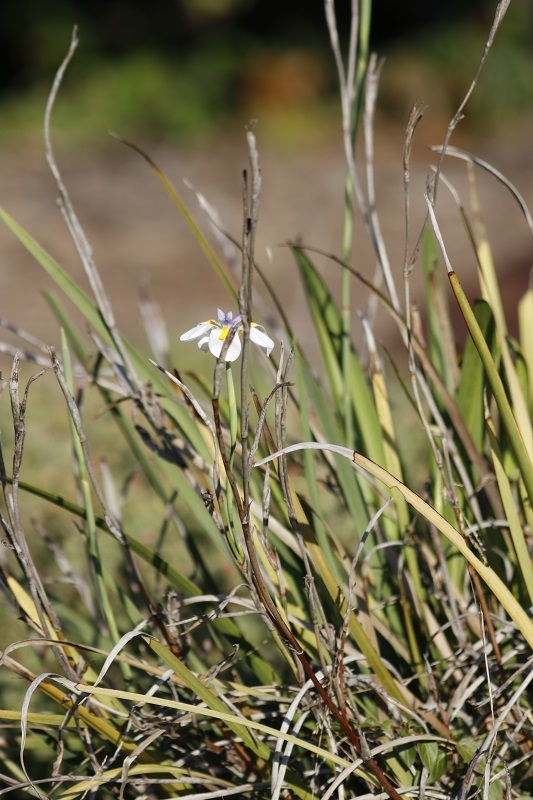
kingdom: Plantae
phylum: Tracheophyta
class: Liliopsida
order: Asparagales
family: Iridaceae
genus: Dietes
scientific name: Dietes grandiflora
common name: Wild iris
